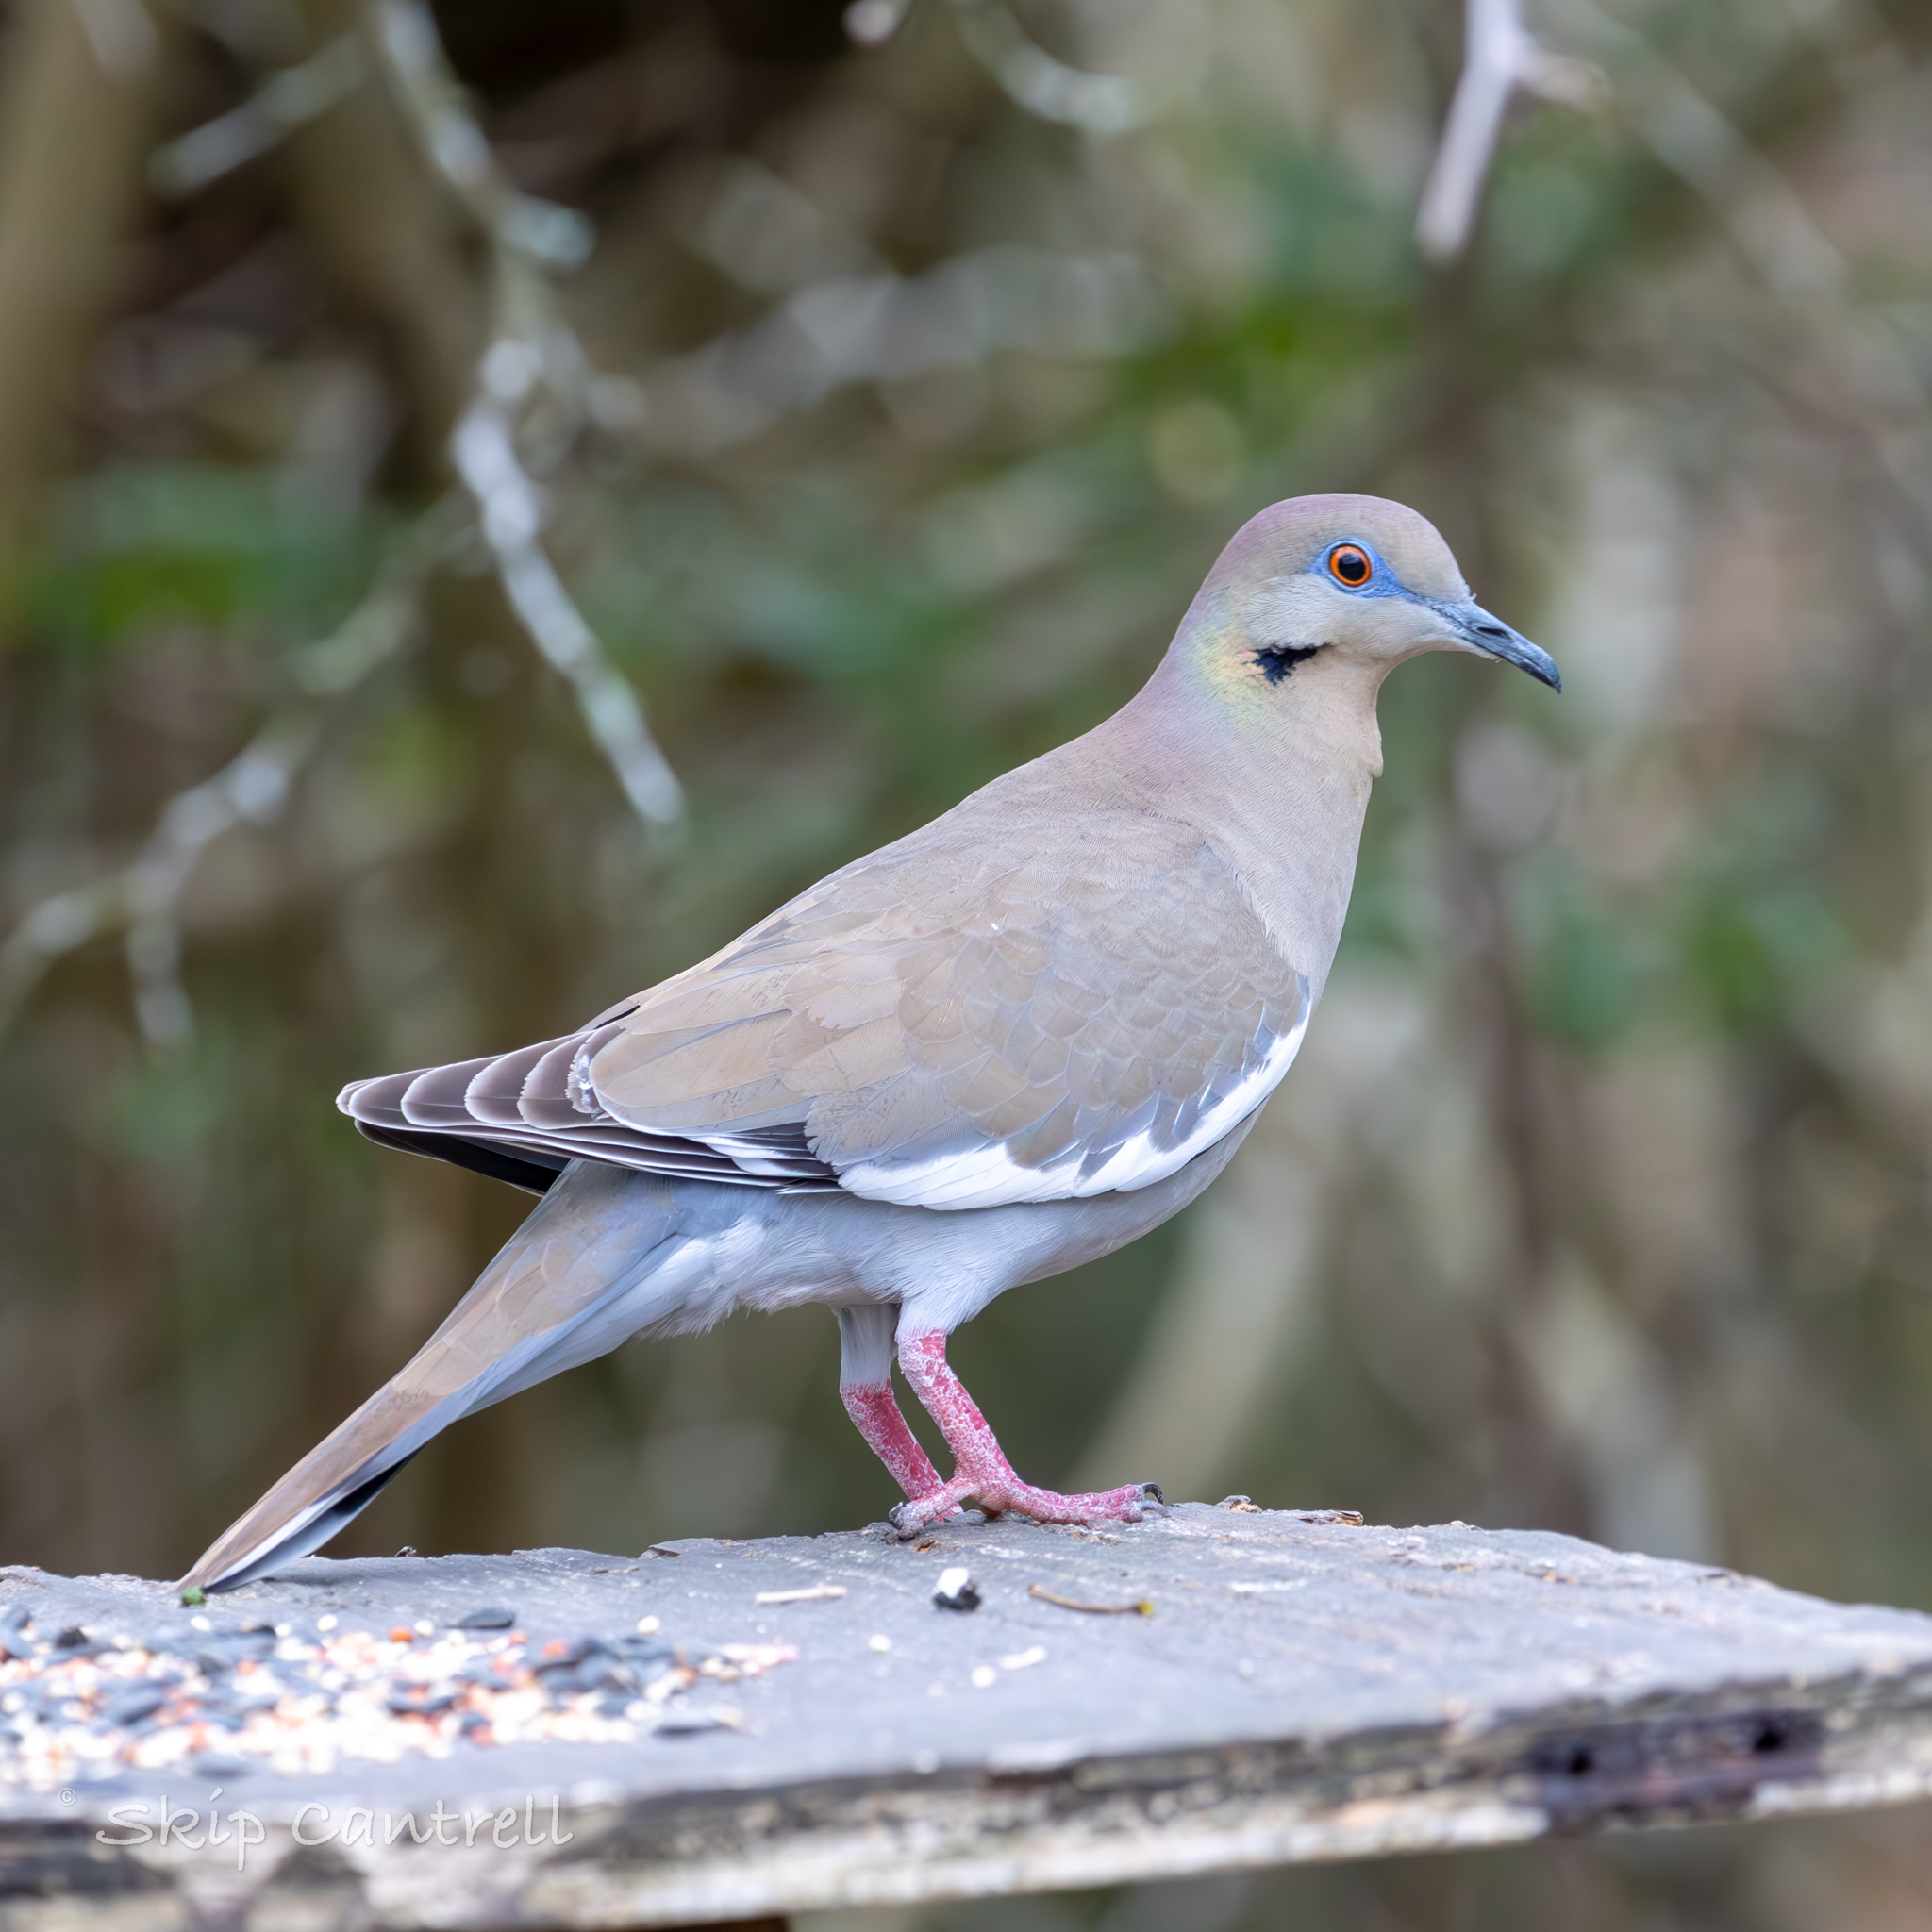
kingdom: Animalia
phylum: Chordata
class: Aves
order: Columbiformes
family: Columbidae
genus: Zenaida
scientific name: Zenaida asiatica
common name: White-winged dove
